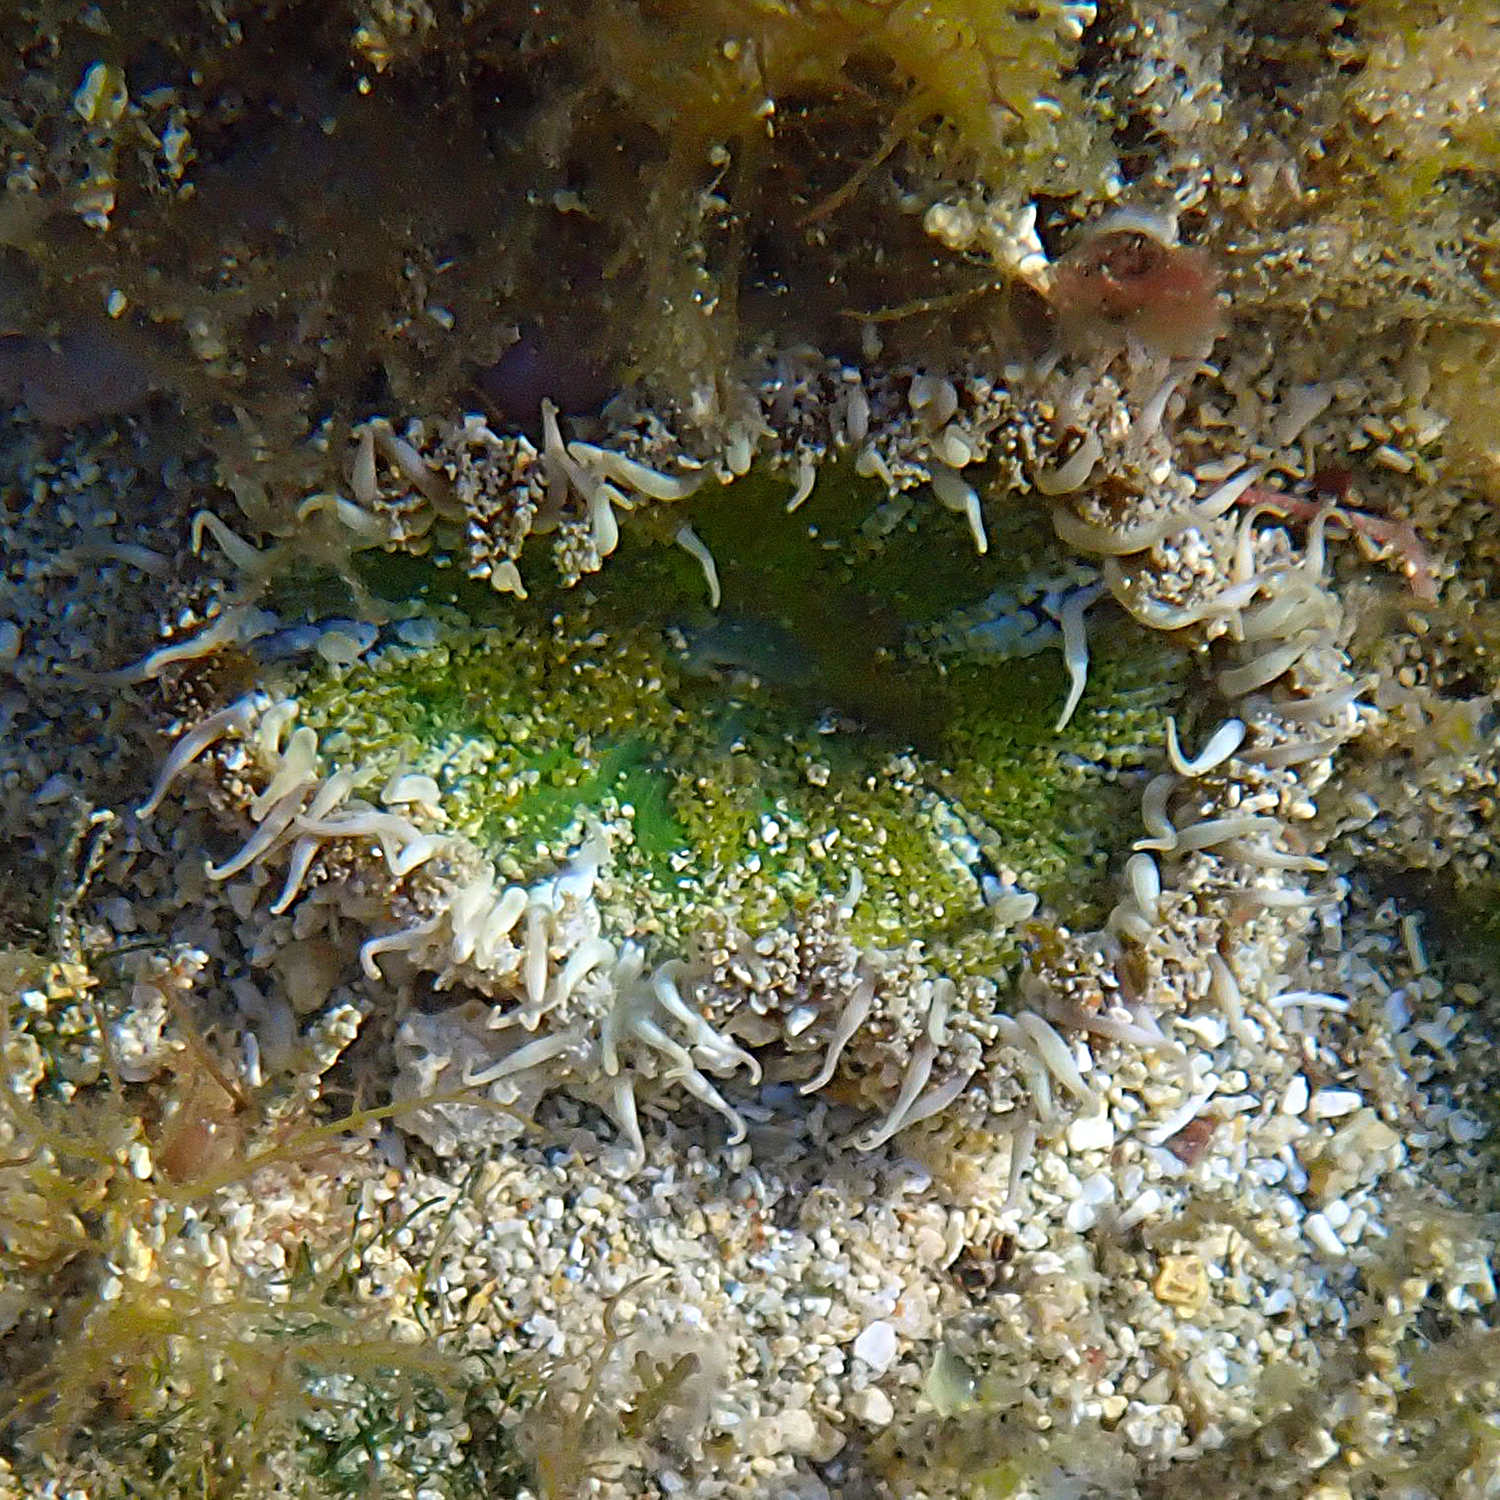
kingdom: Animalia
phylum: Cnidaria
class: Anthozoa
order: Actiniaria
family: Heteranthidae
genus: Heteranthus
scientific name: Heteranthus verruculatus
